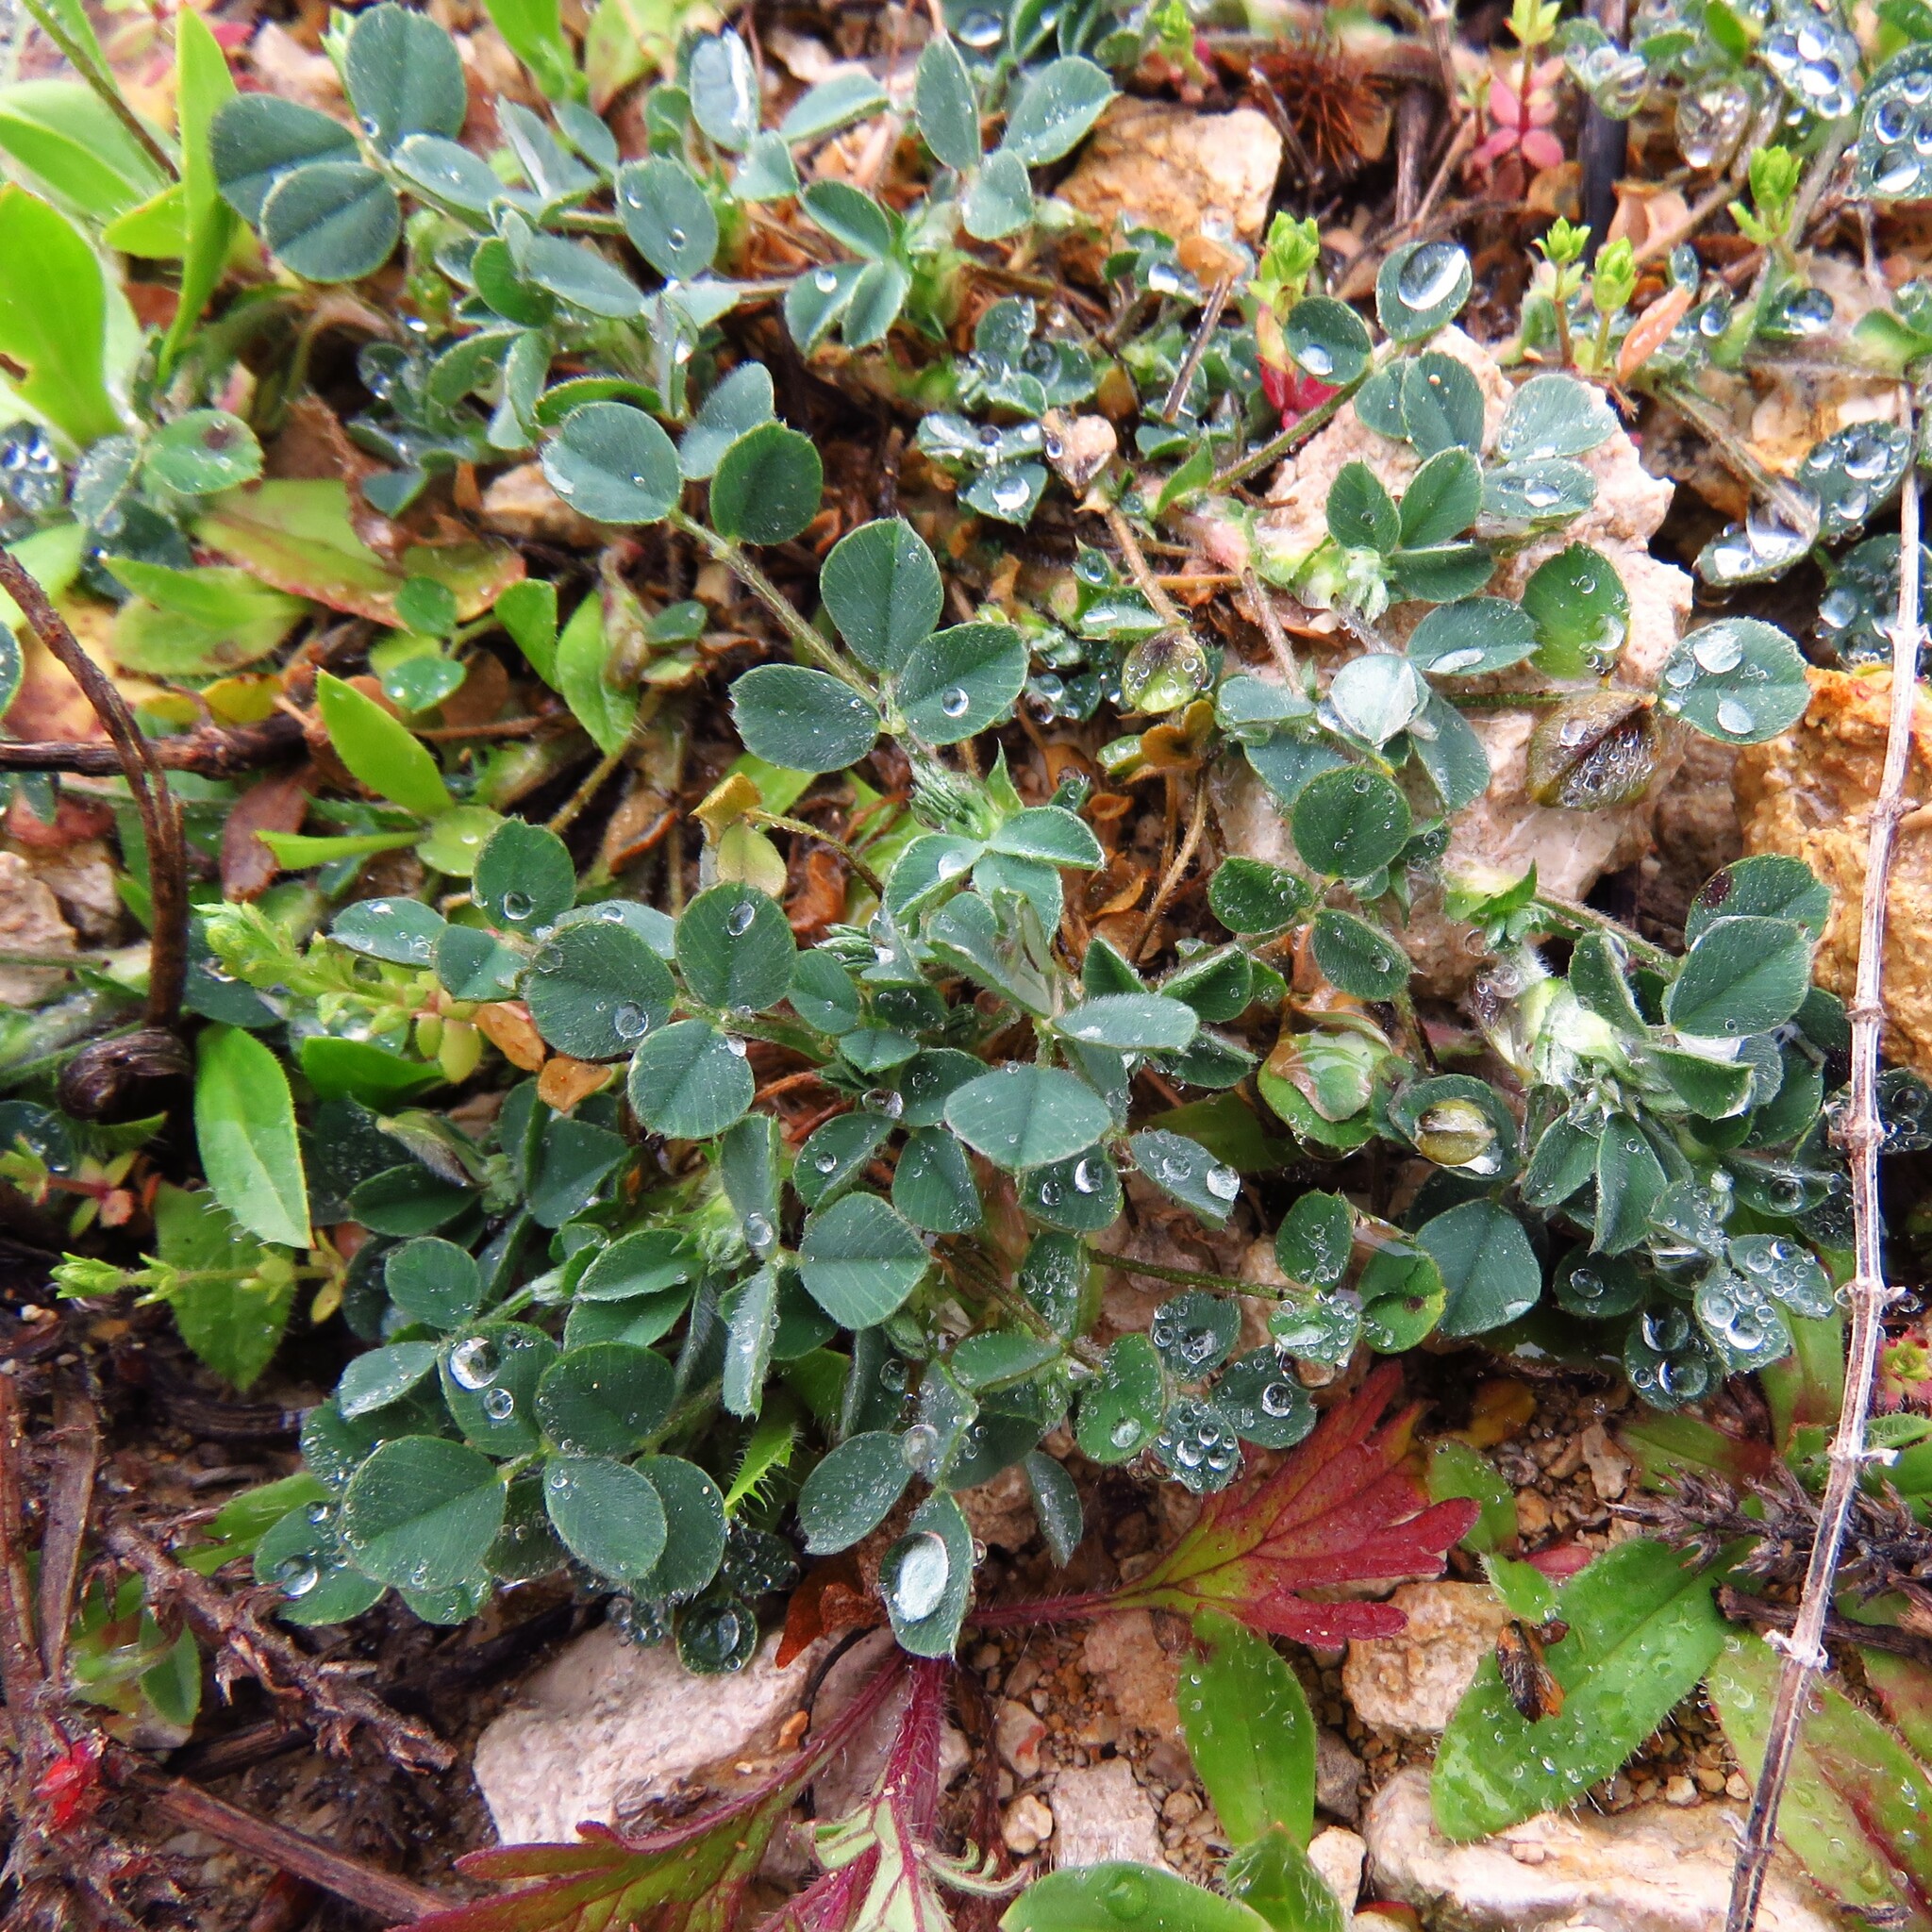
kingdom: Plantae
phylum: Tracheophyta
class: Magnoliopsida
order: Fabales
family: Fabaceae
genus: Medicago
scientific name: Medicago minima
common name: Little bur-clover
